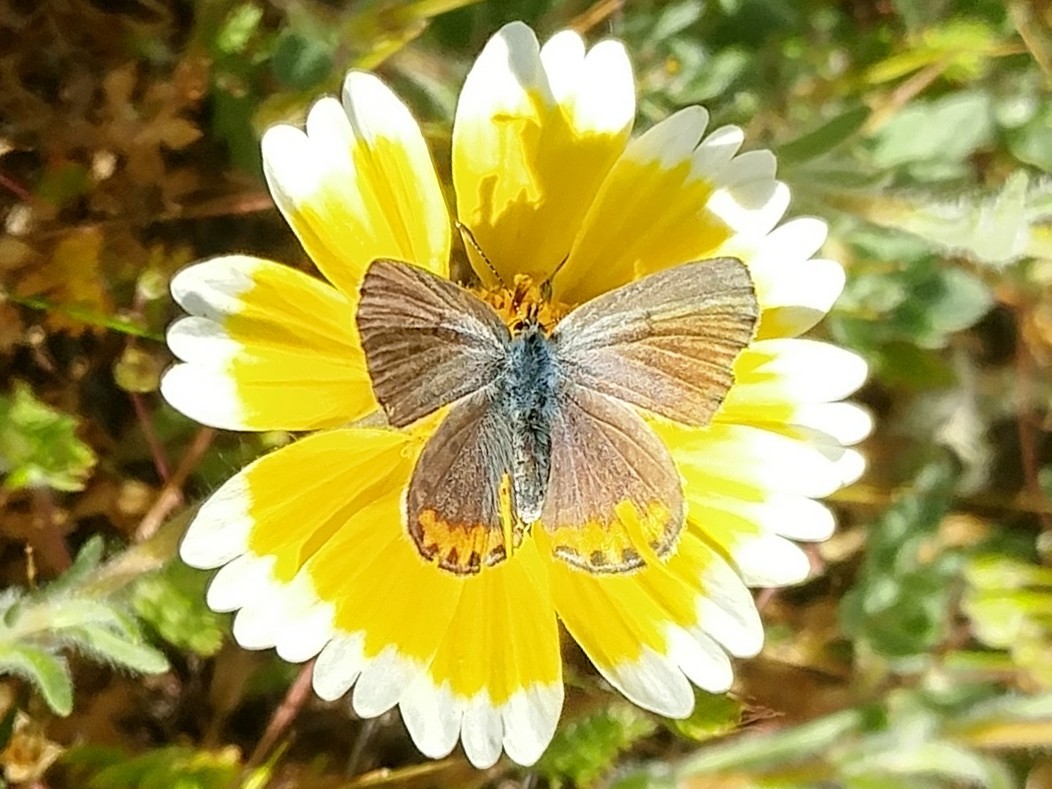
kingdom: Animalia
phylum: Arthropoda
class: Insecta
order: Lepidoptera
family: Lycaenidae
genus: Icaricia
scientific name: Icaricia acmon
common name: Acmon blue
